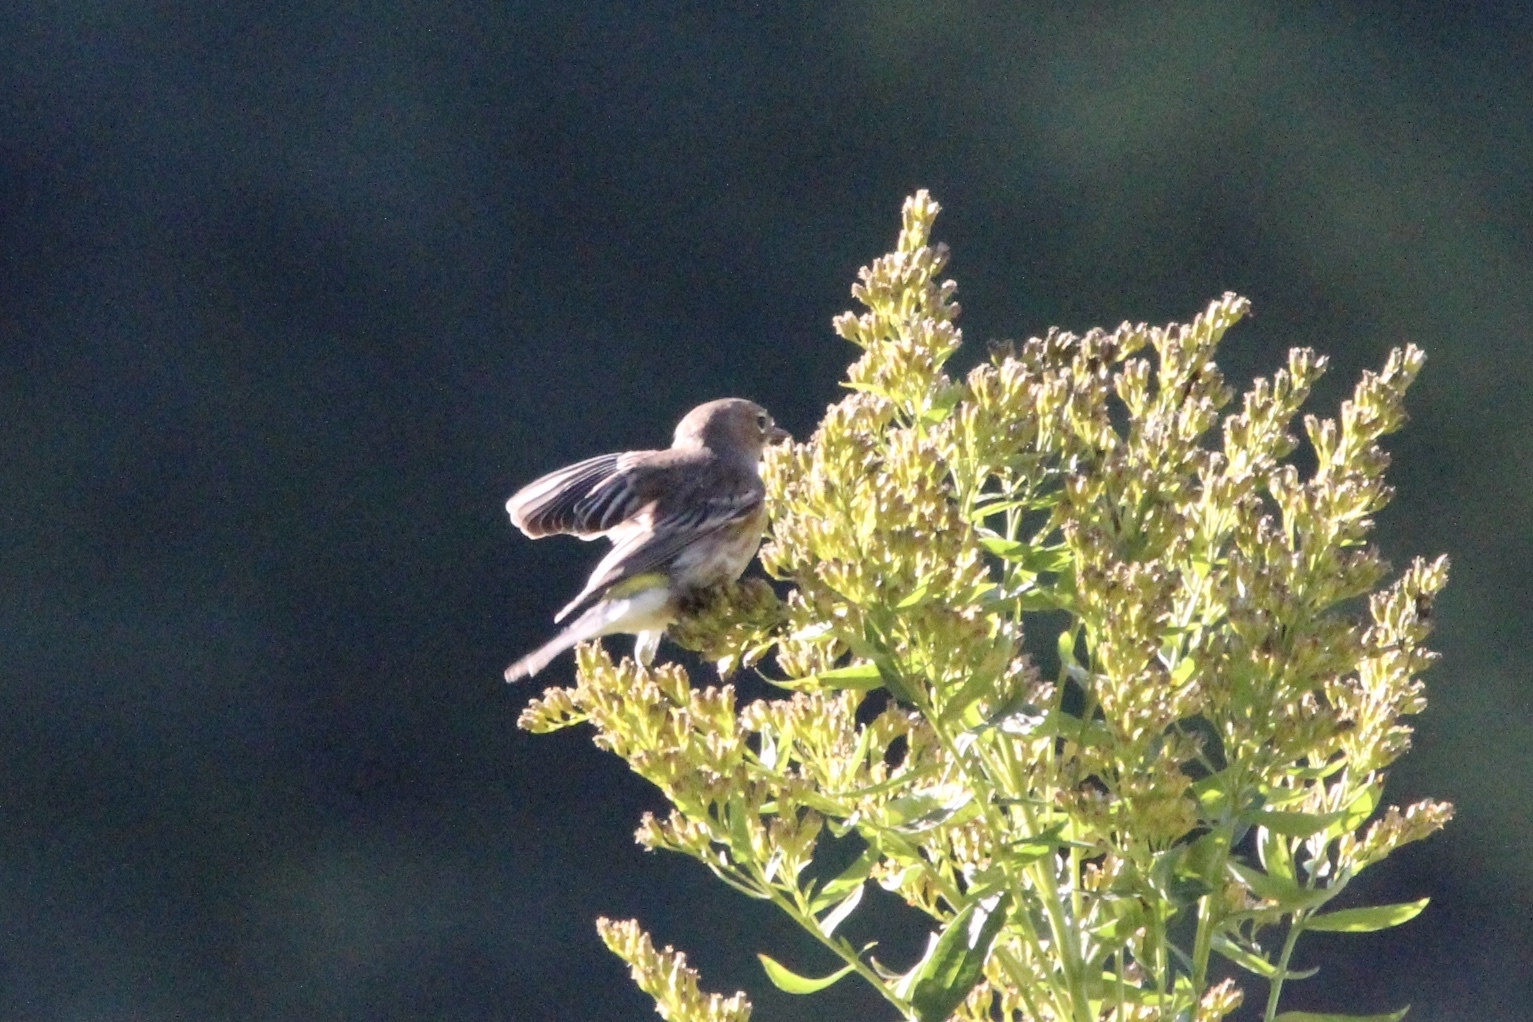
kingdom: Animalia
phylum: Chordata
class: Aves
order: Passeriformes
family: Parulidae
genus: Setophaga
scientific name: Setophaga coronata
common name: Myrtle warbler
